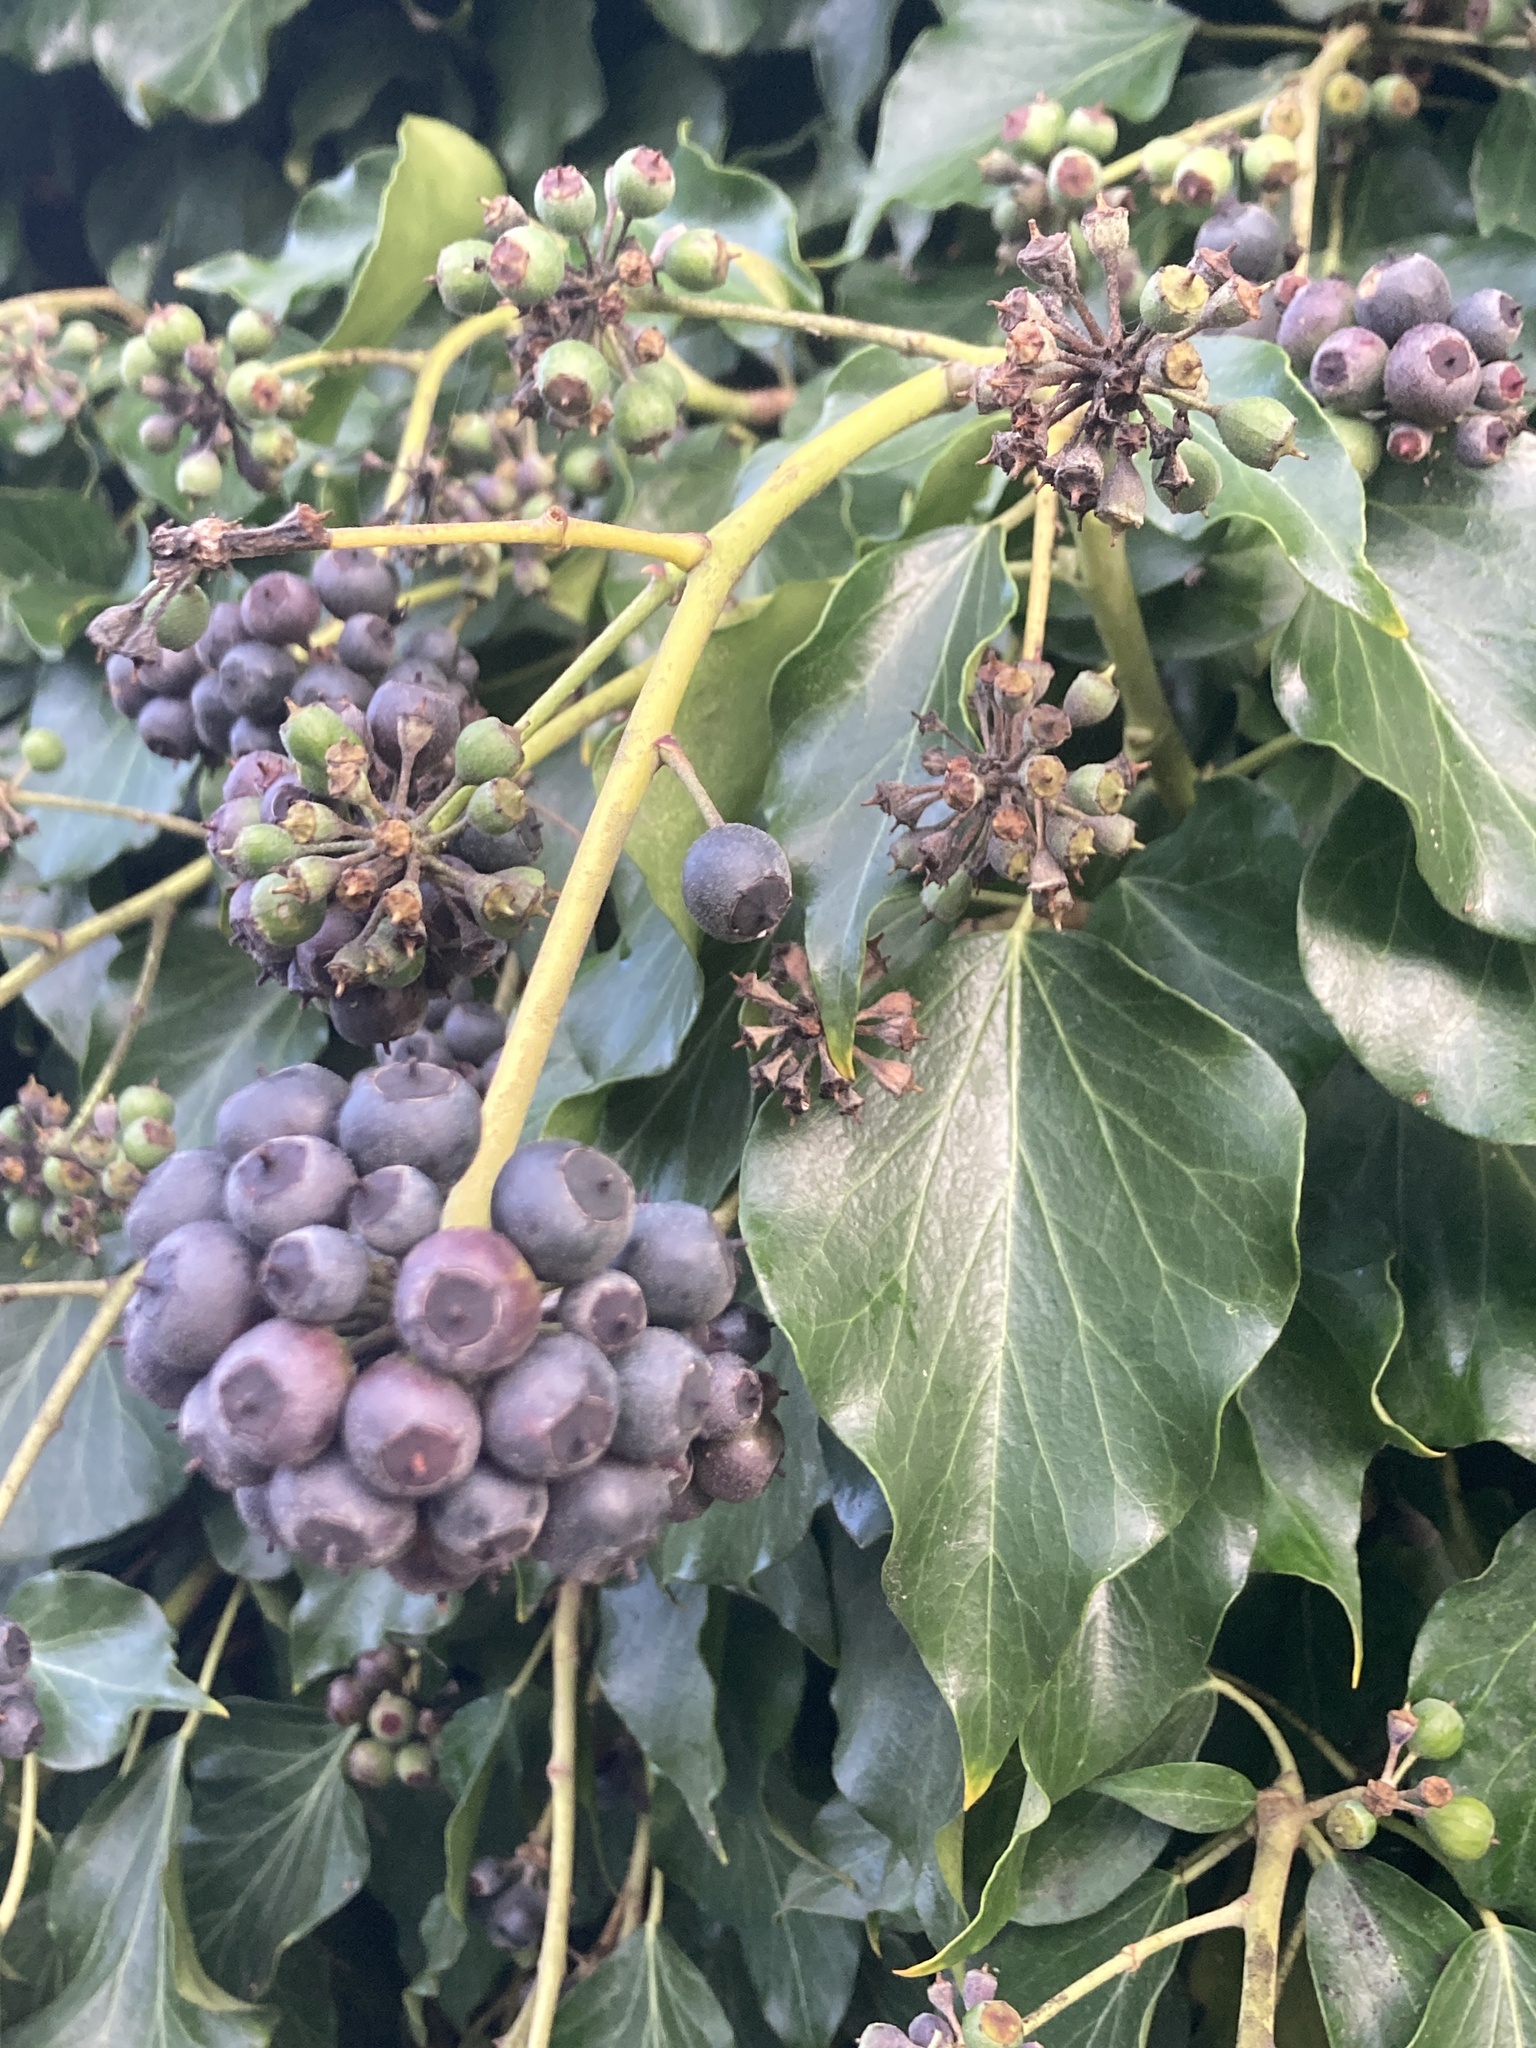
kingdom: Plantae
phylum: Tracheophyta
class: Magnoliopsida
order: Apiales
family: Araliaceae
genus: Hedera
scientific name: Hedera helix
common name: Ivy
